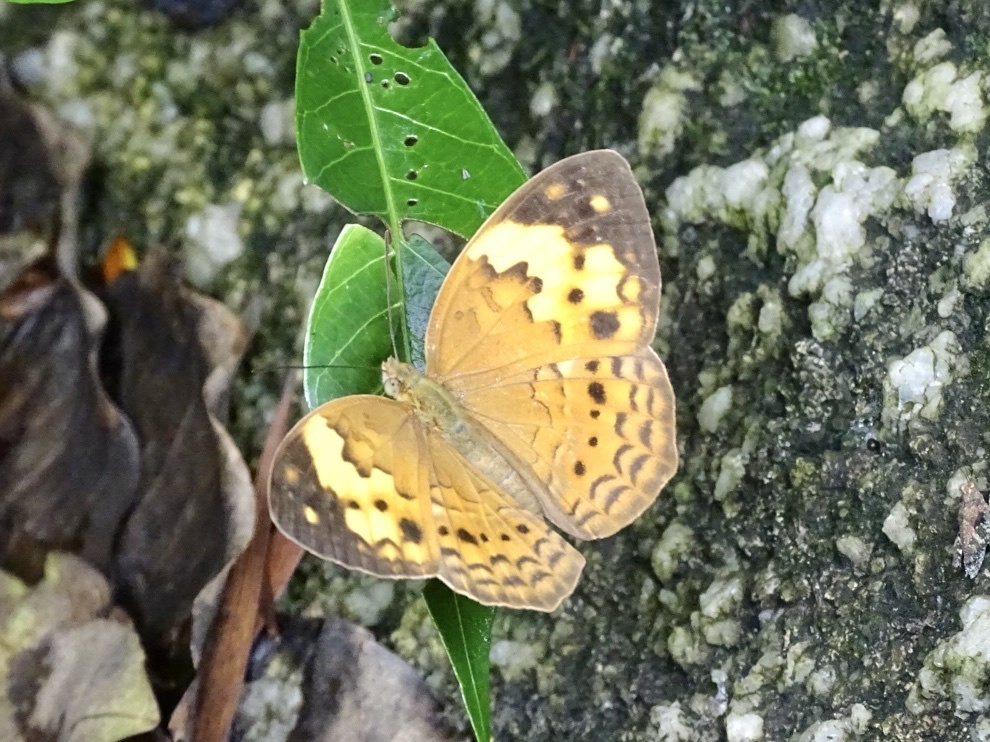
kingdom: Animalia
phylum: Arthropoda
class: Insecta
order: Lepidoptera
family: Nymphalidae
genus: Cupha
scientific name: Cupha erymanthis
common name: Rustic
